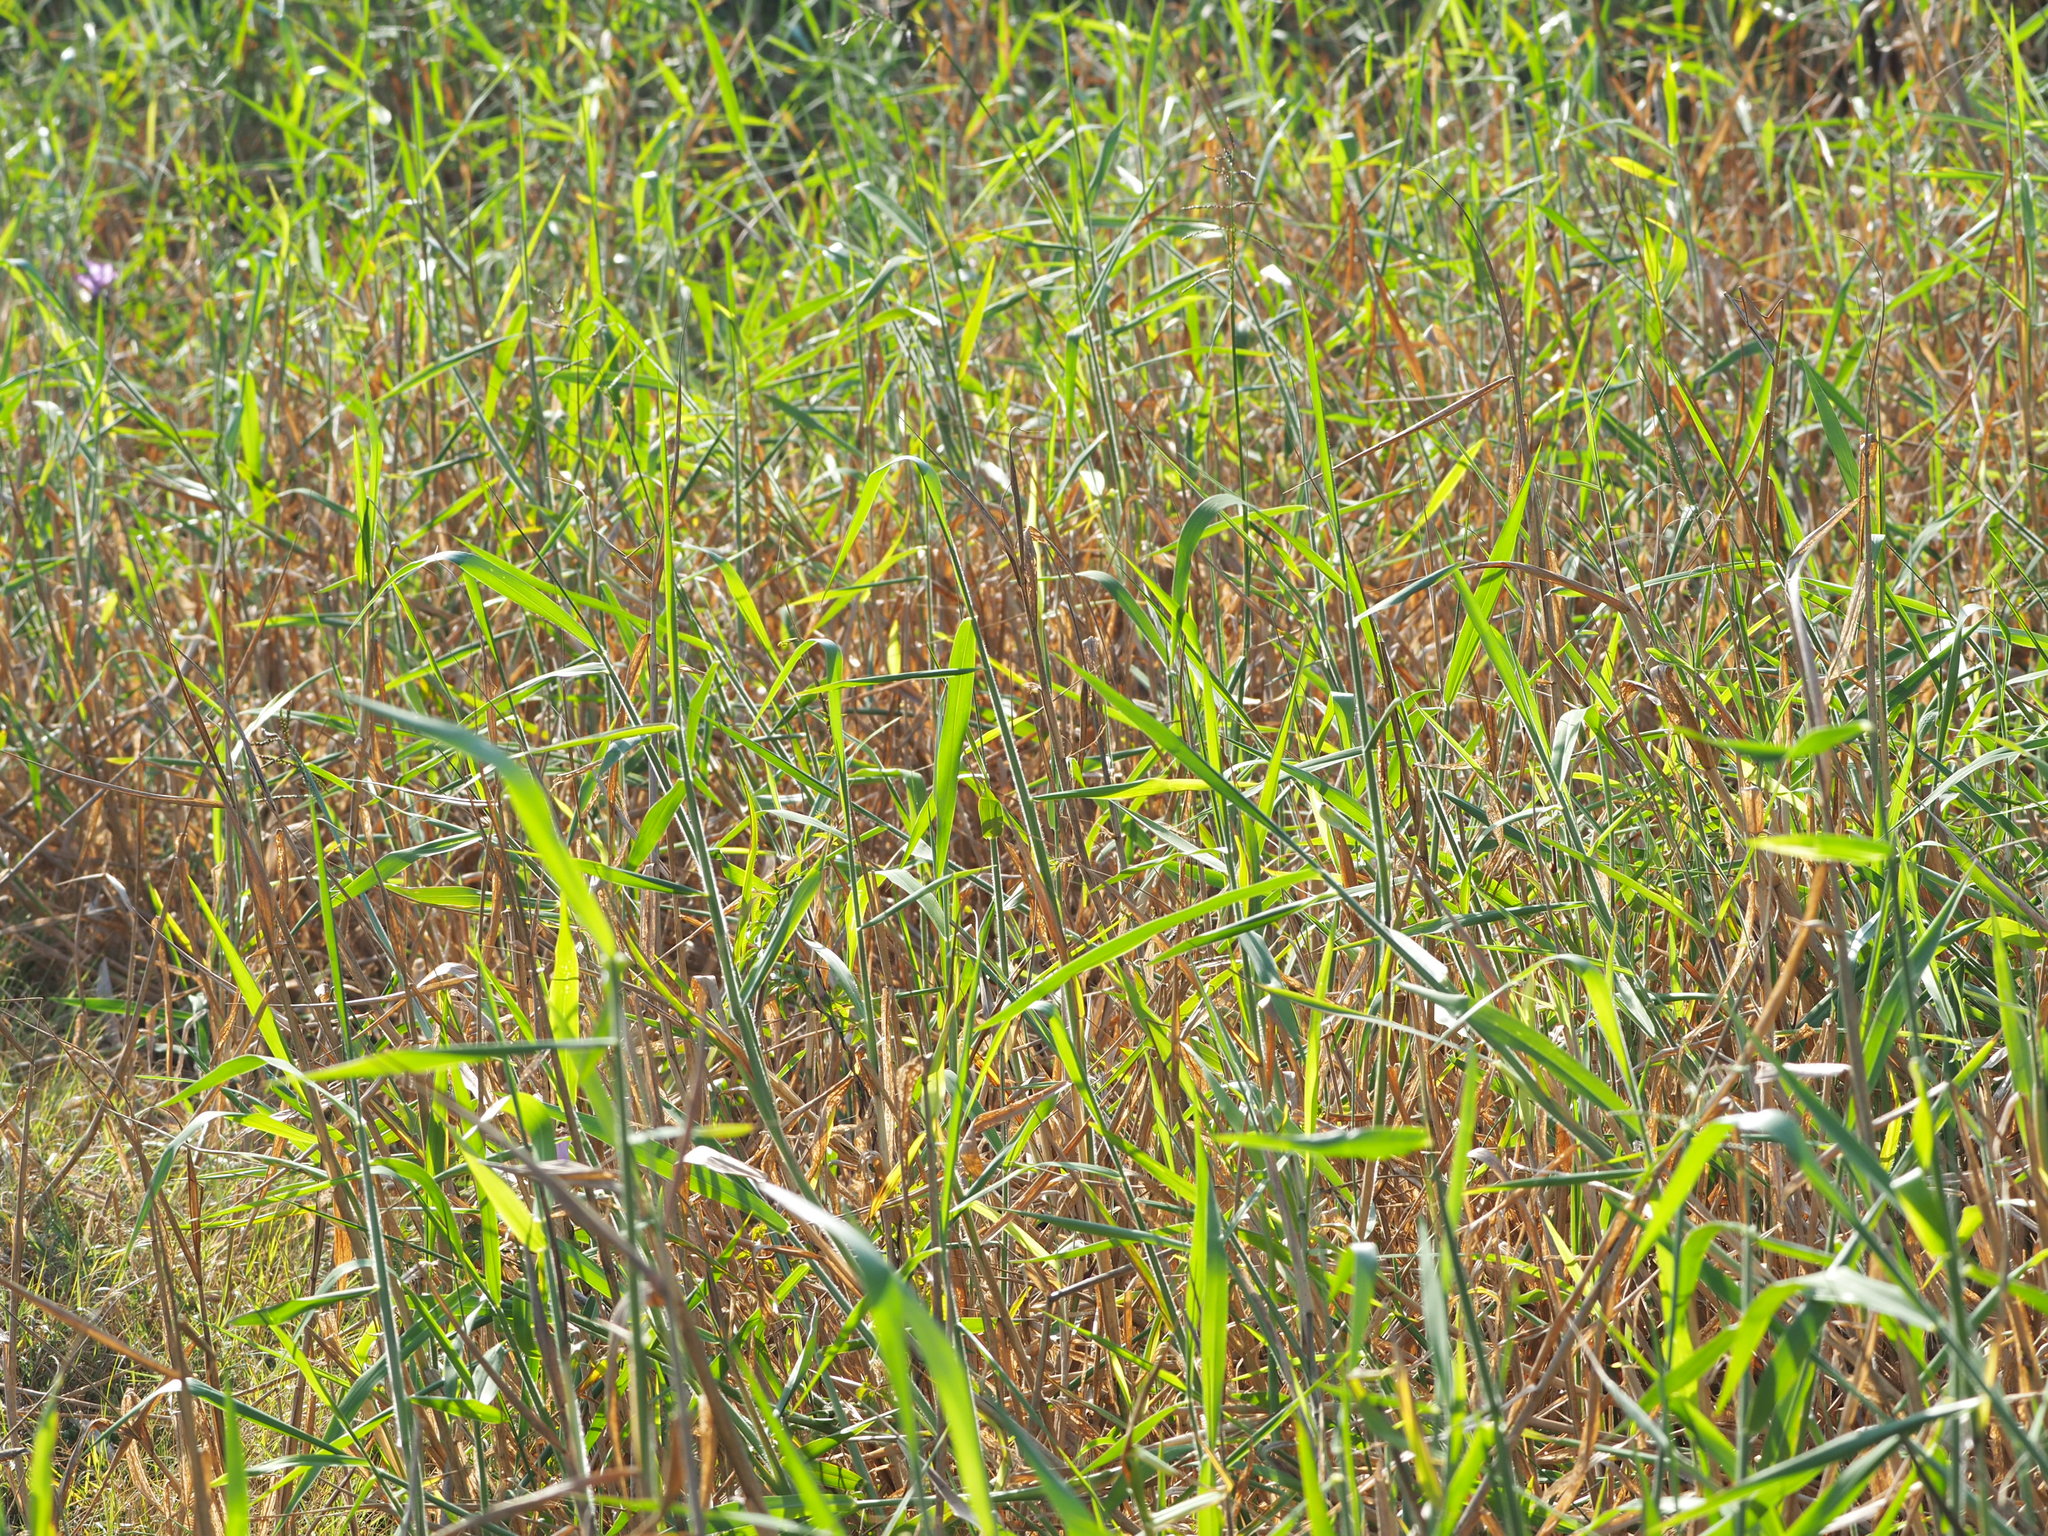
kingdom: Plantae
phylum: Tracheophyta
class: Liliopsida
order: Poales
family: Poaceae
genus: Urochloa
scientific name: Urochloa mutica
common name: Para grass
